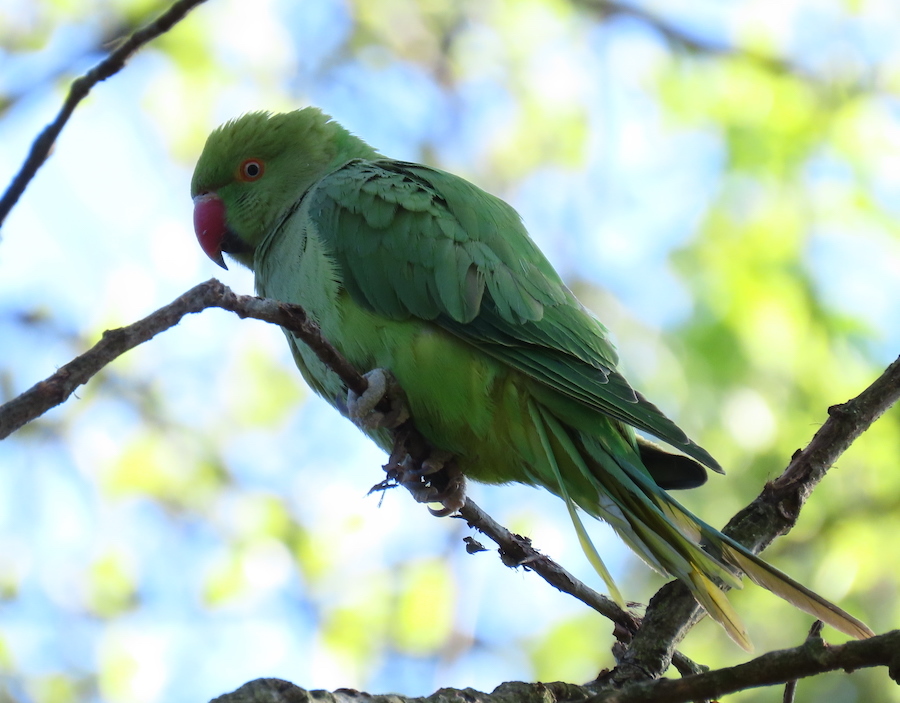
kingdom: Animalia
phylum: Chordata
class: Aves
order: Psittaciformes
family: Psittacidae
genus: Psittacula
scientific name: Psittacula krameri
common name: Rose-ringed parakeet
